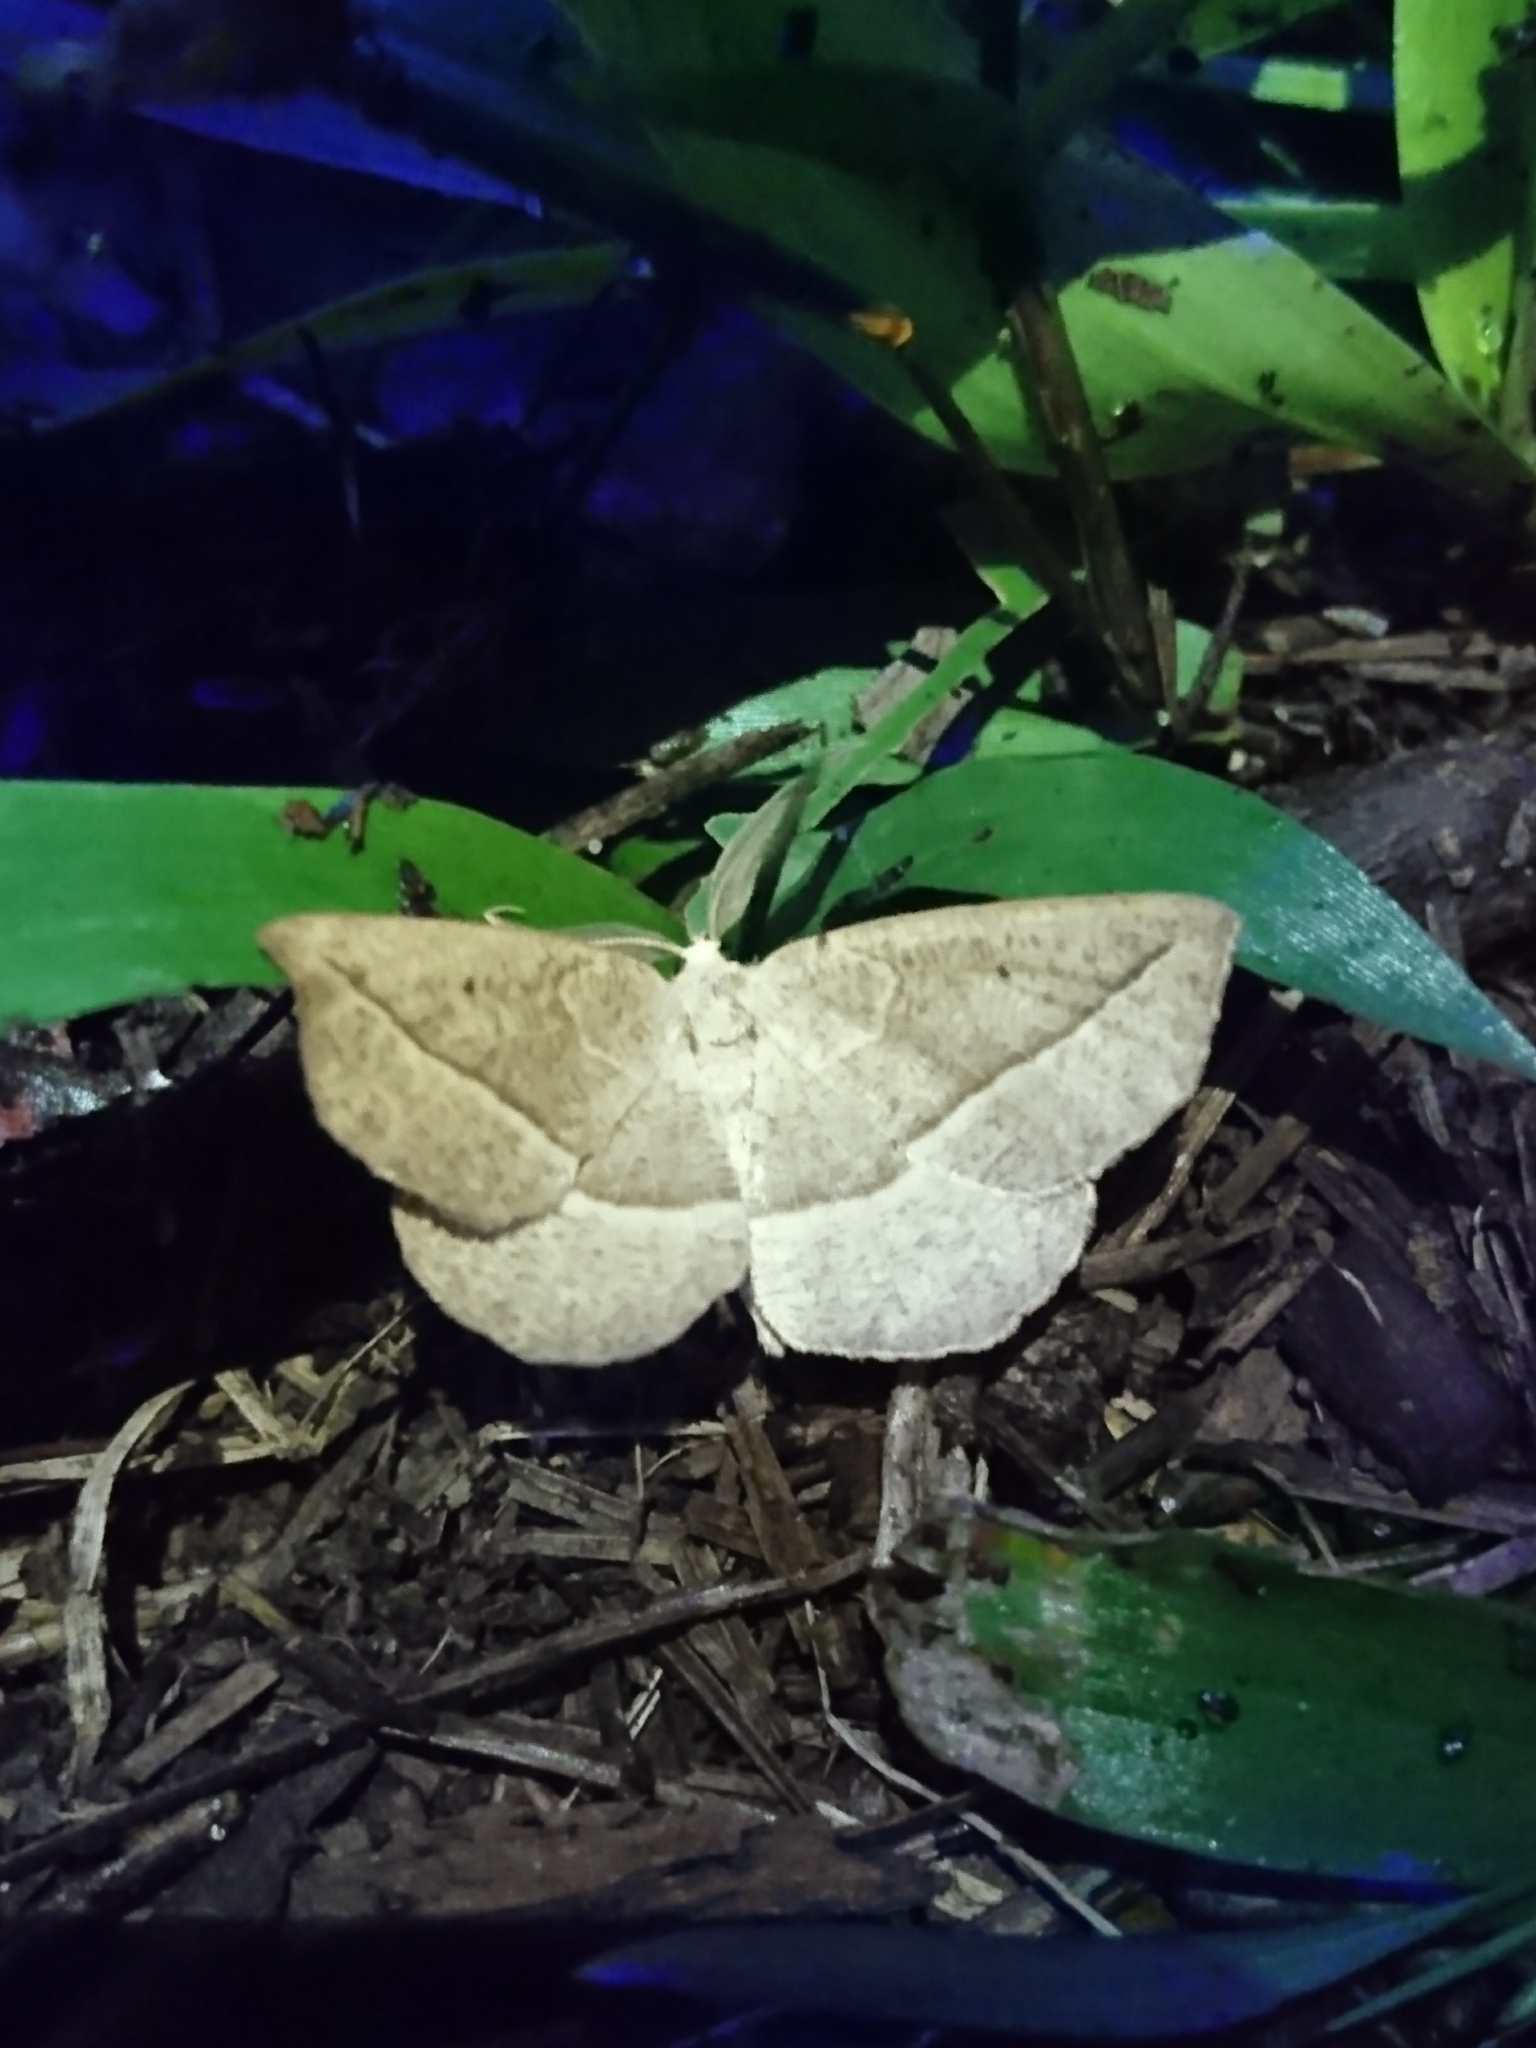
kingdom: Animalia
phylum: Arthropoda
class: Insecta
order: Lepidoptera
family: Geometridae
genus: Eusarca
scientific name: Eusarca confusaria
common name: Confused eusarca
